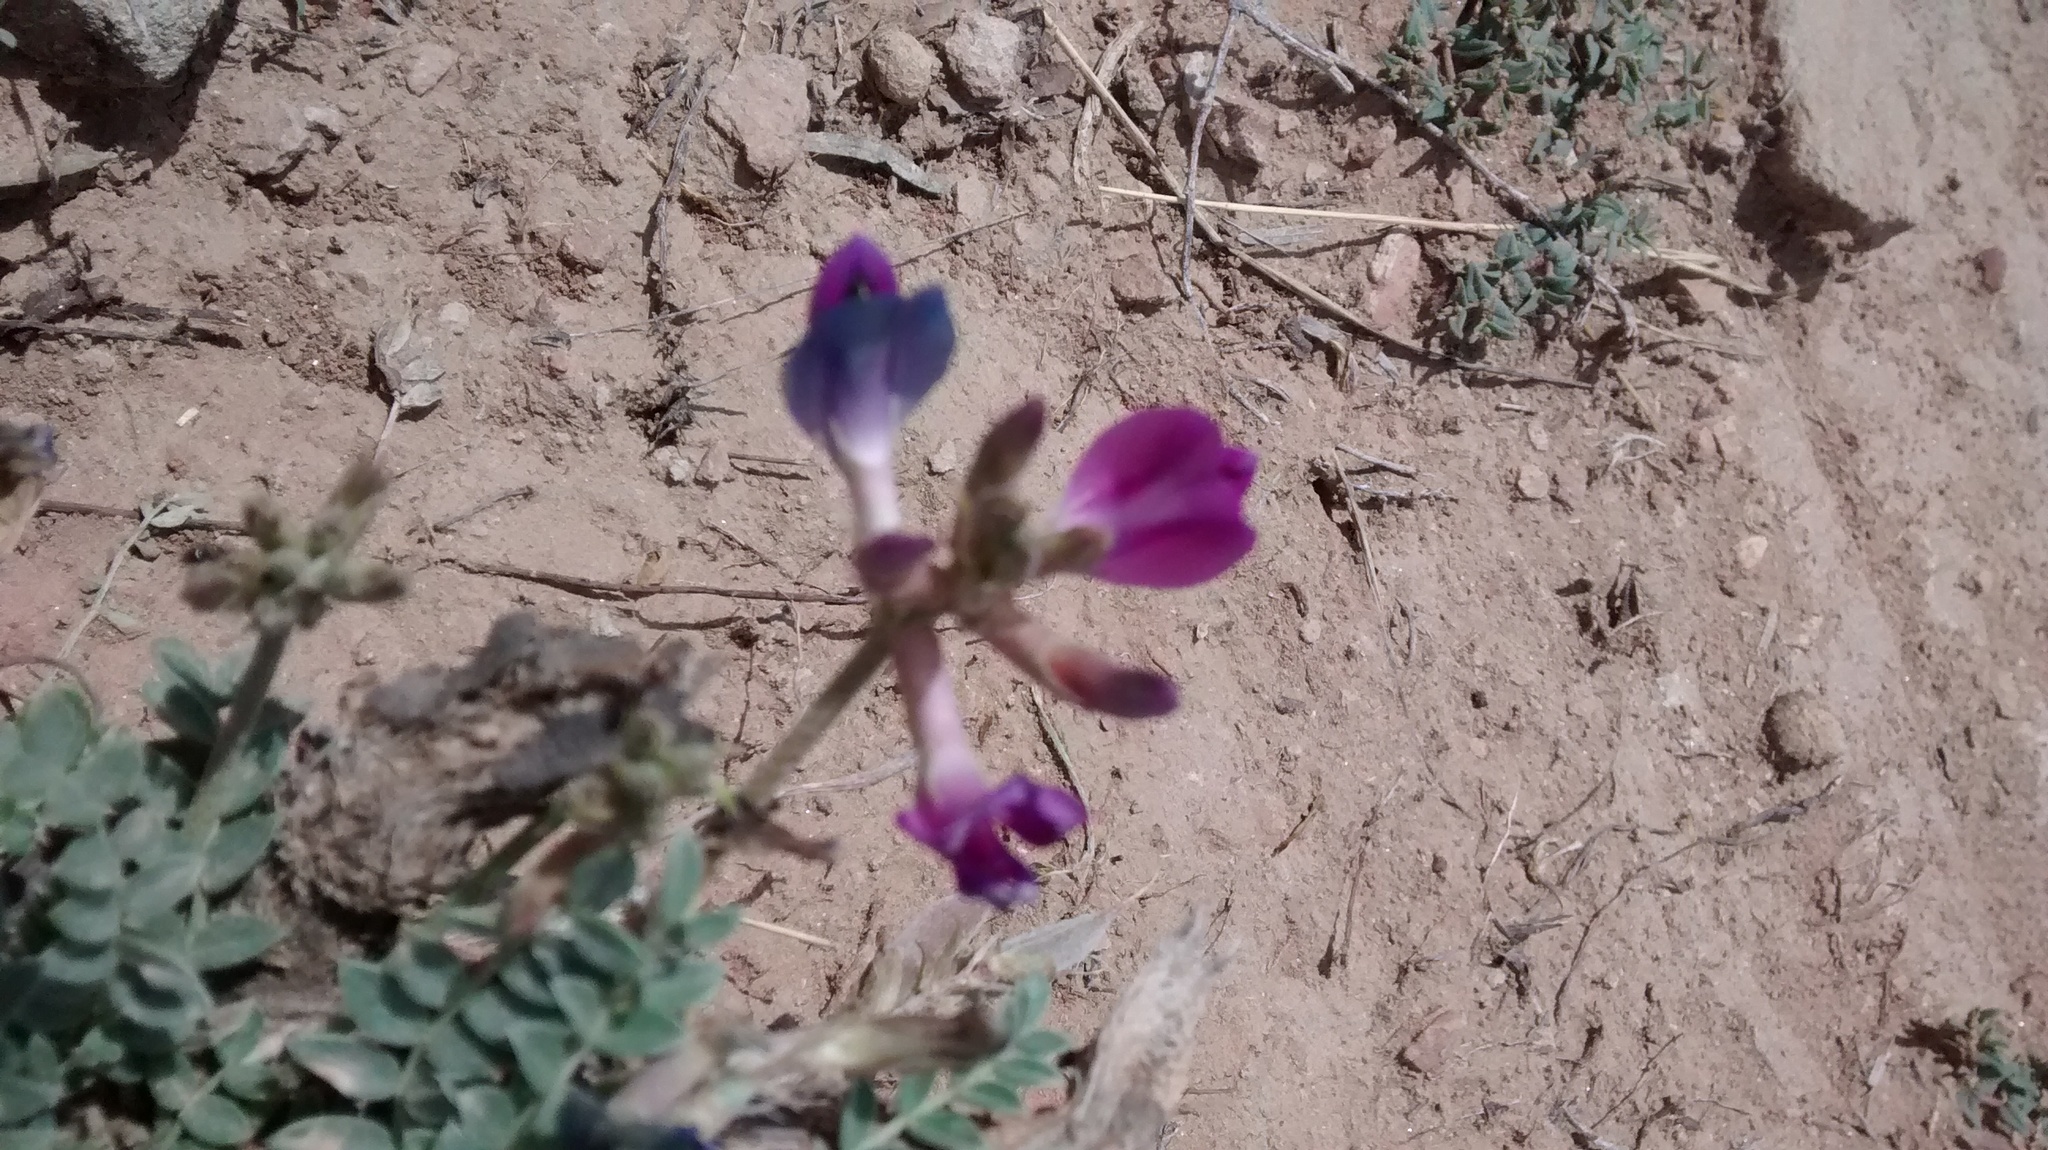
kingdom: Plantae
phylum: Tracheophyta
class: Magnoliopsida
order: Fabales
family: Fabaceae
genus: Astragalus
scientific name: Astragalus missouriensis
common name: Missouri milk-vetch
